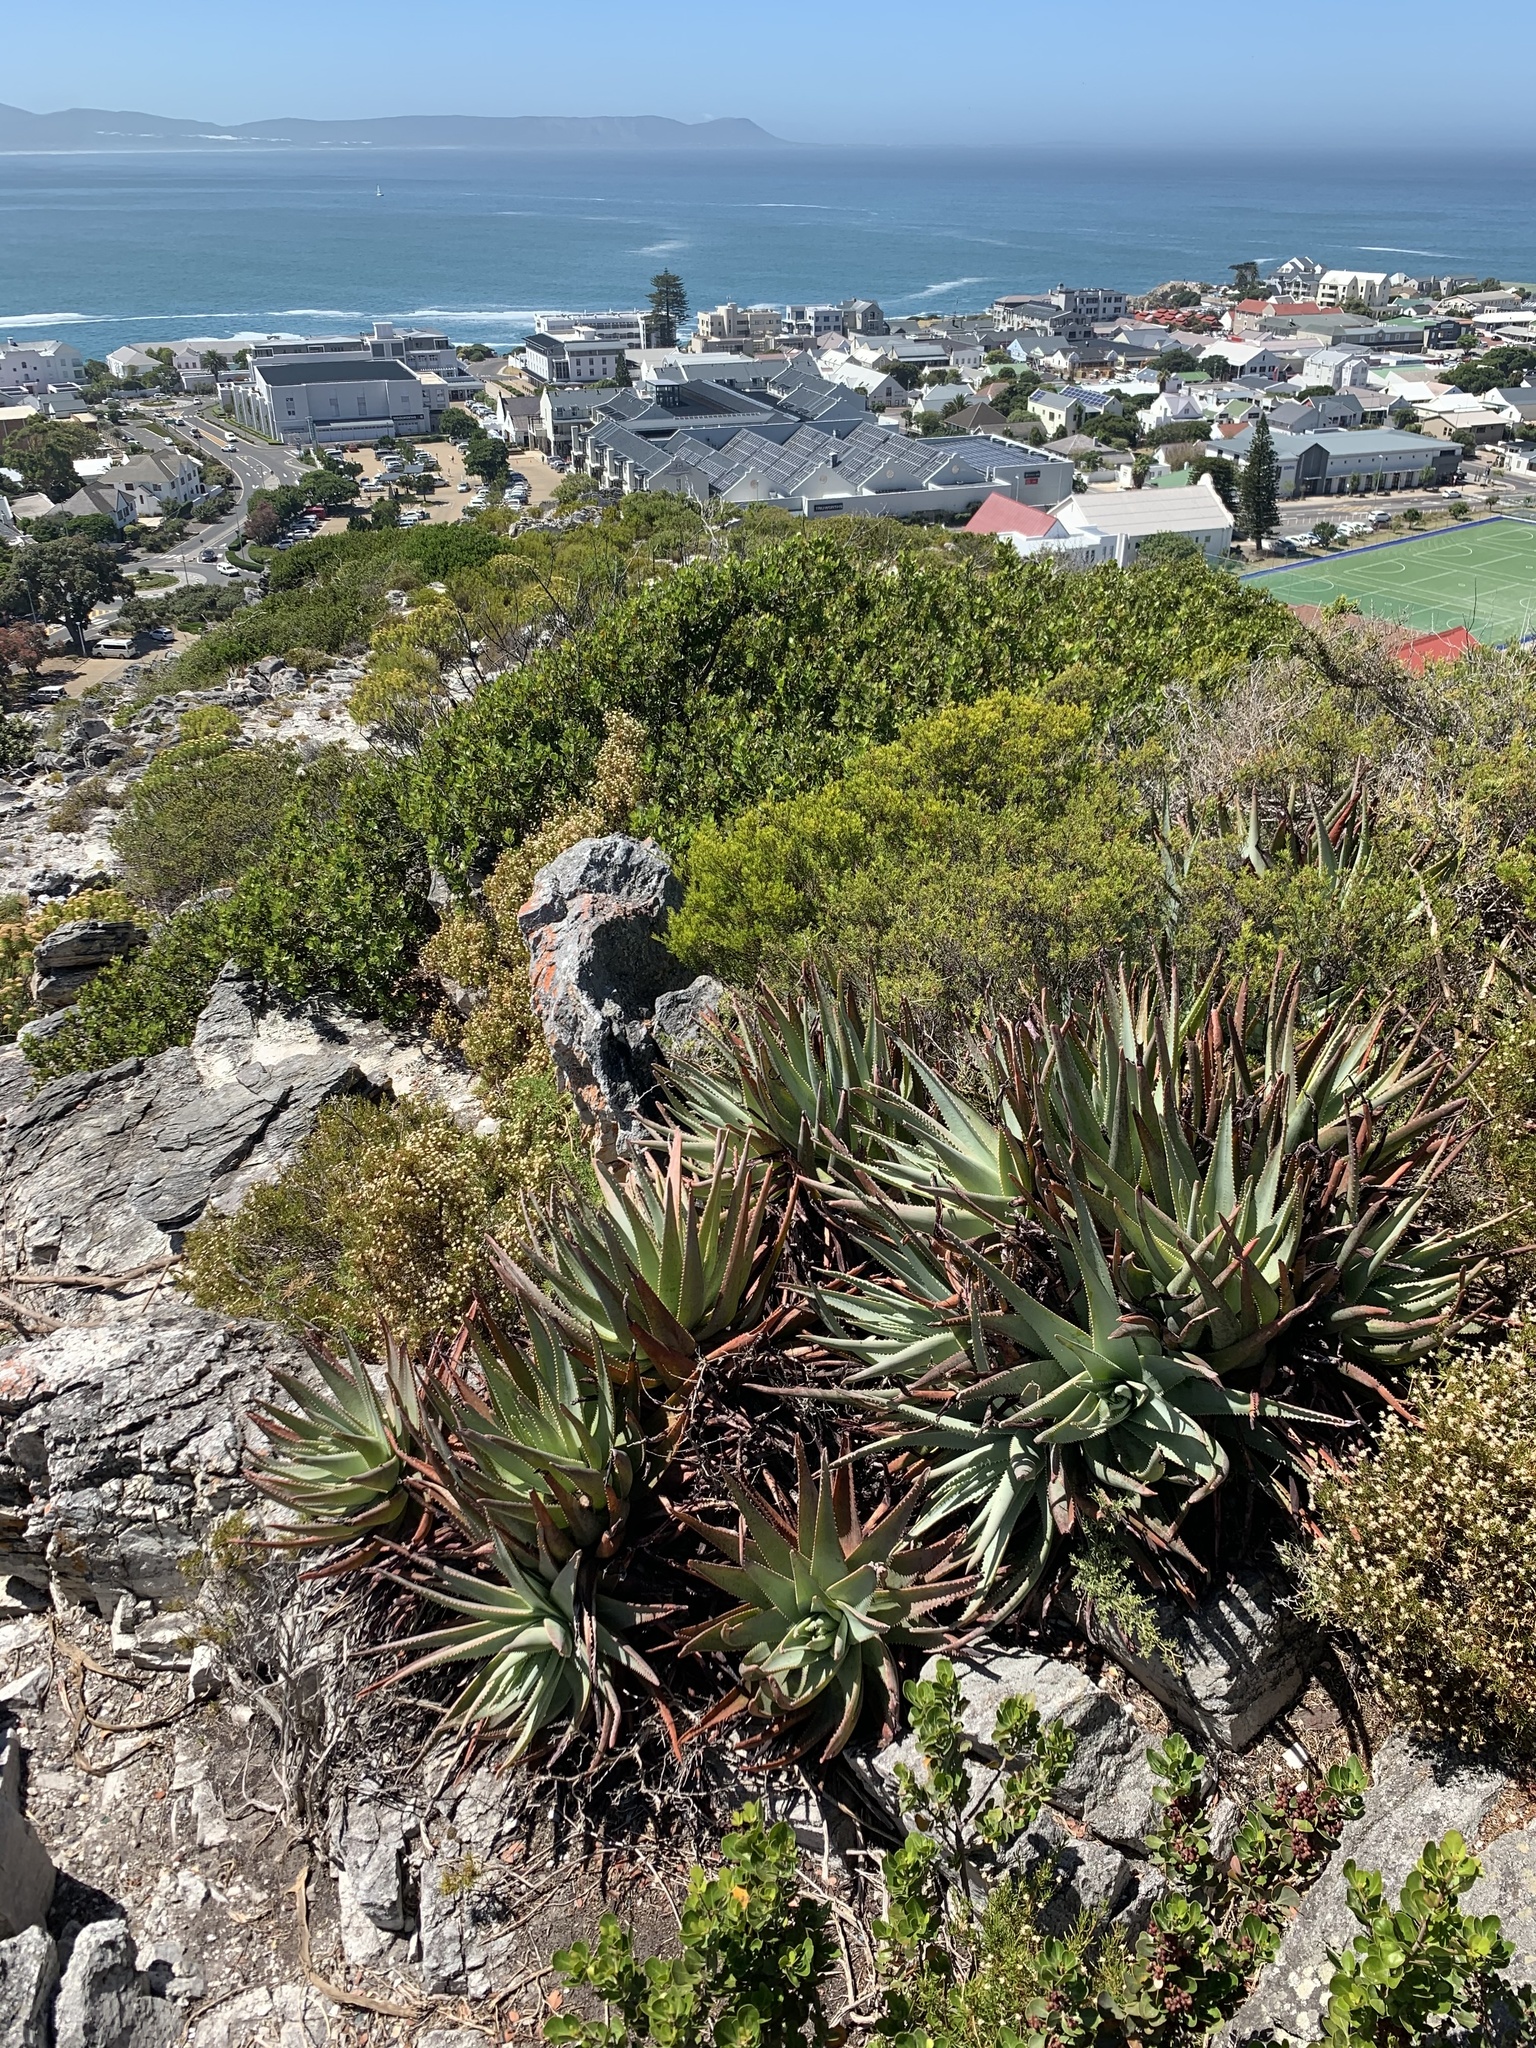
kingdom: Plantae
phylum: Tracheophyta
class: Liliopsida
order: Asparagales
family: Asphodelaceae
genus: Aloe
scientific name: Aloe succotrina
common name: Bombay aloe
